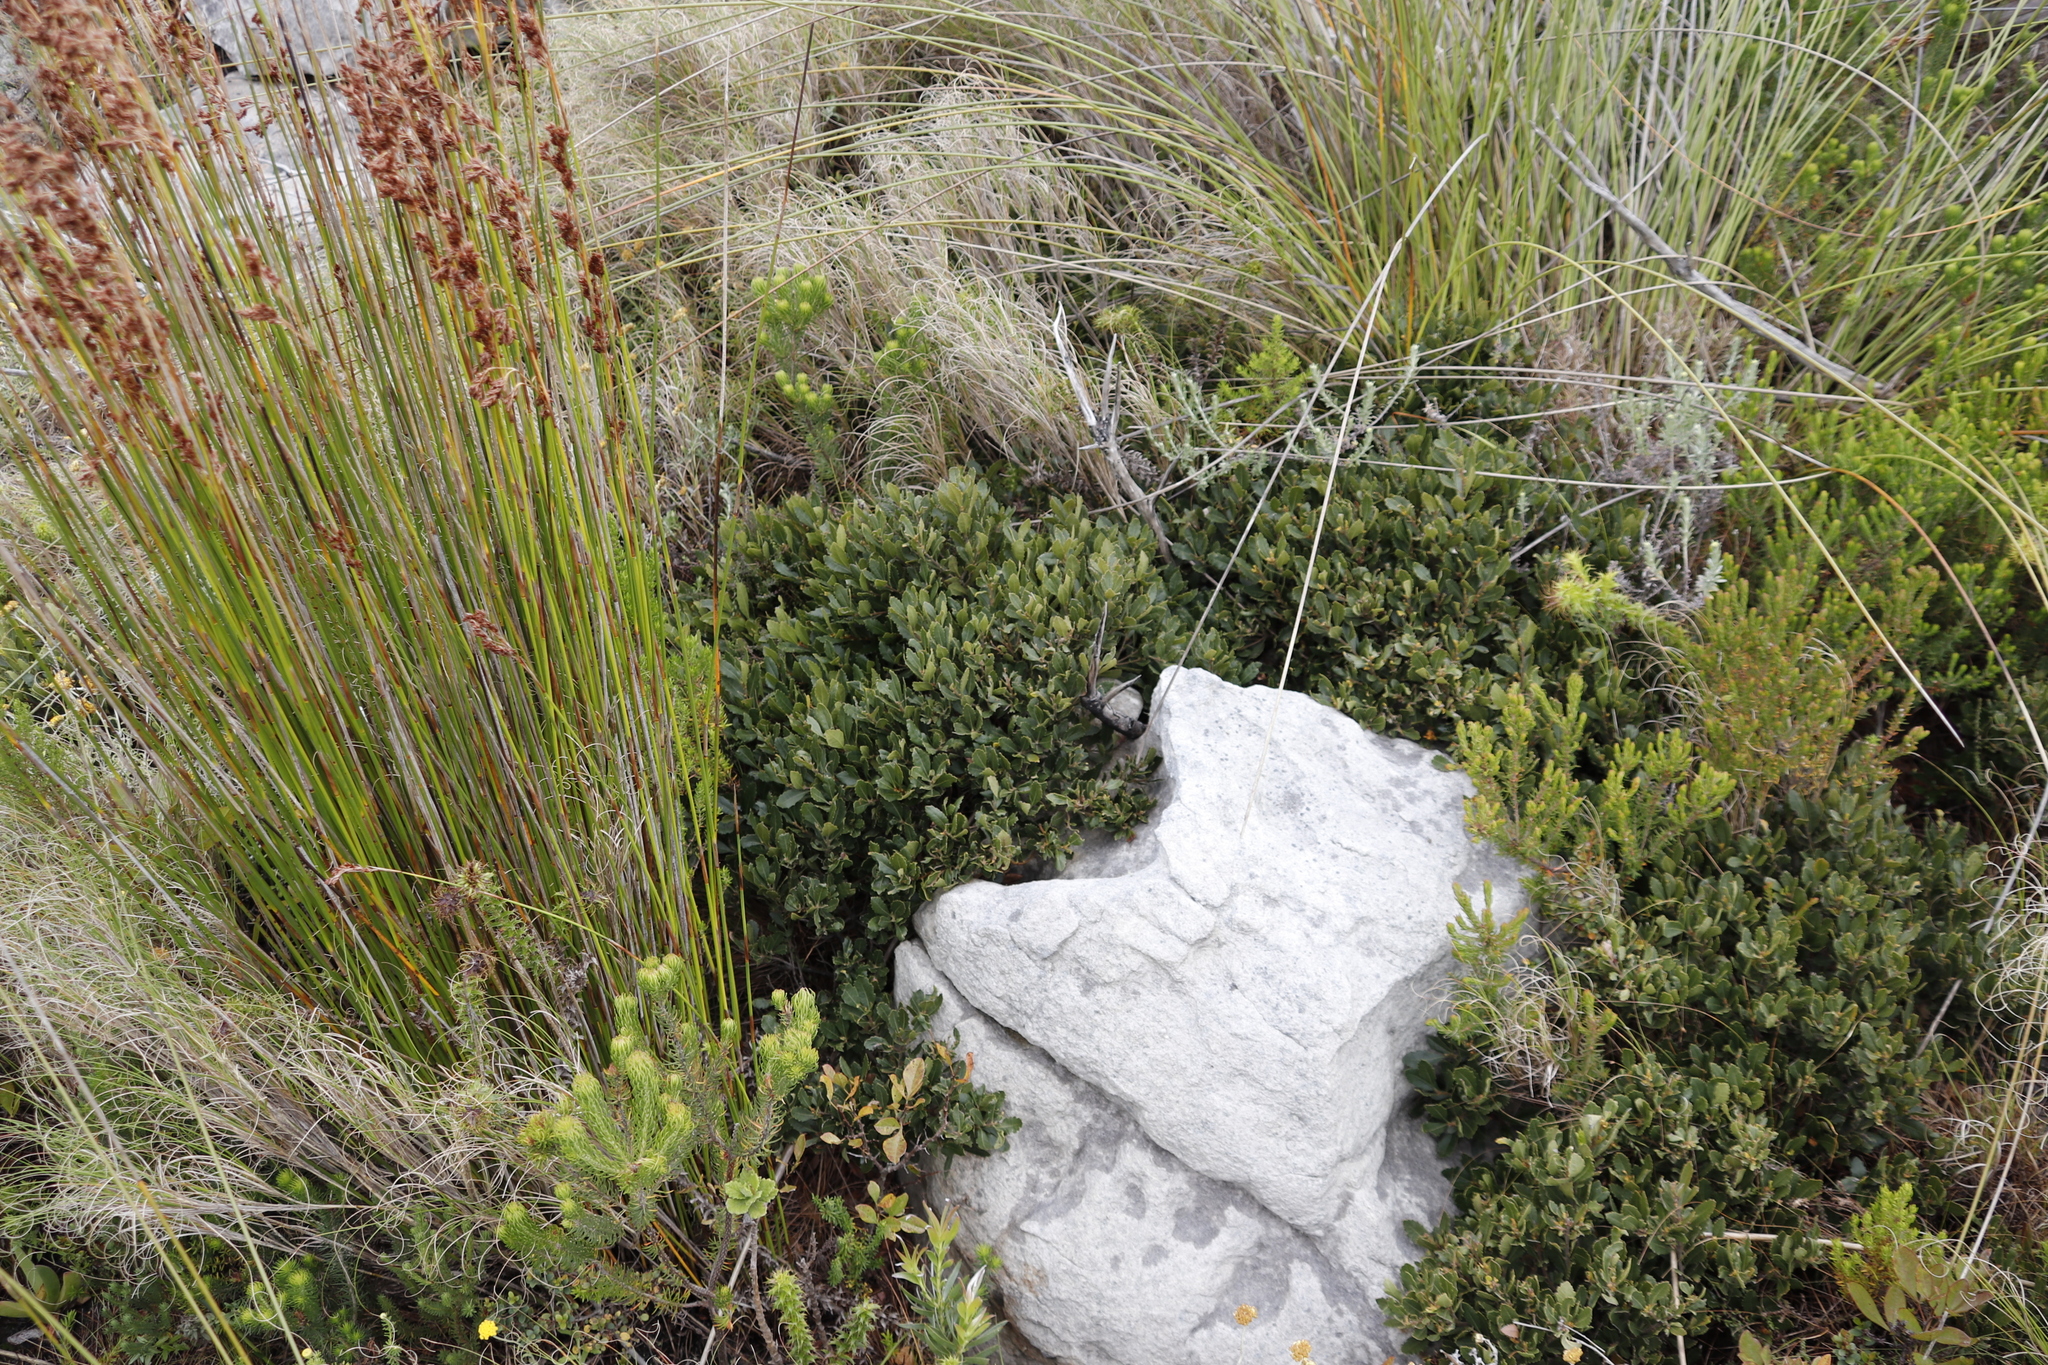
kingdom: Plantae
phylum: Tracheophyta
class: Magnoliopsida
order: Fagales
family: Myricaceae
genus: Morella
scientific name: Morella diversifolia
